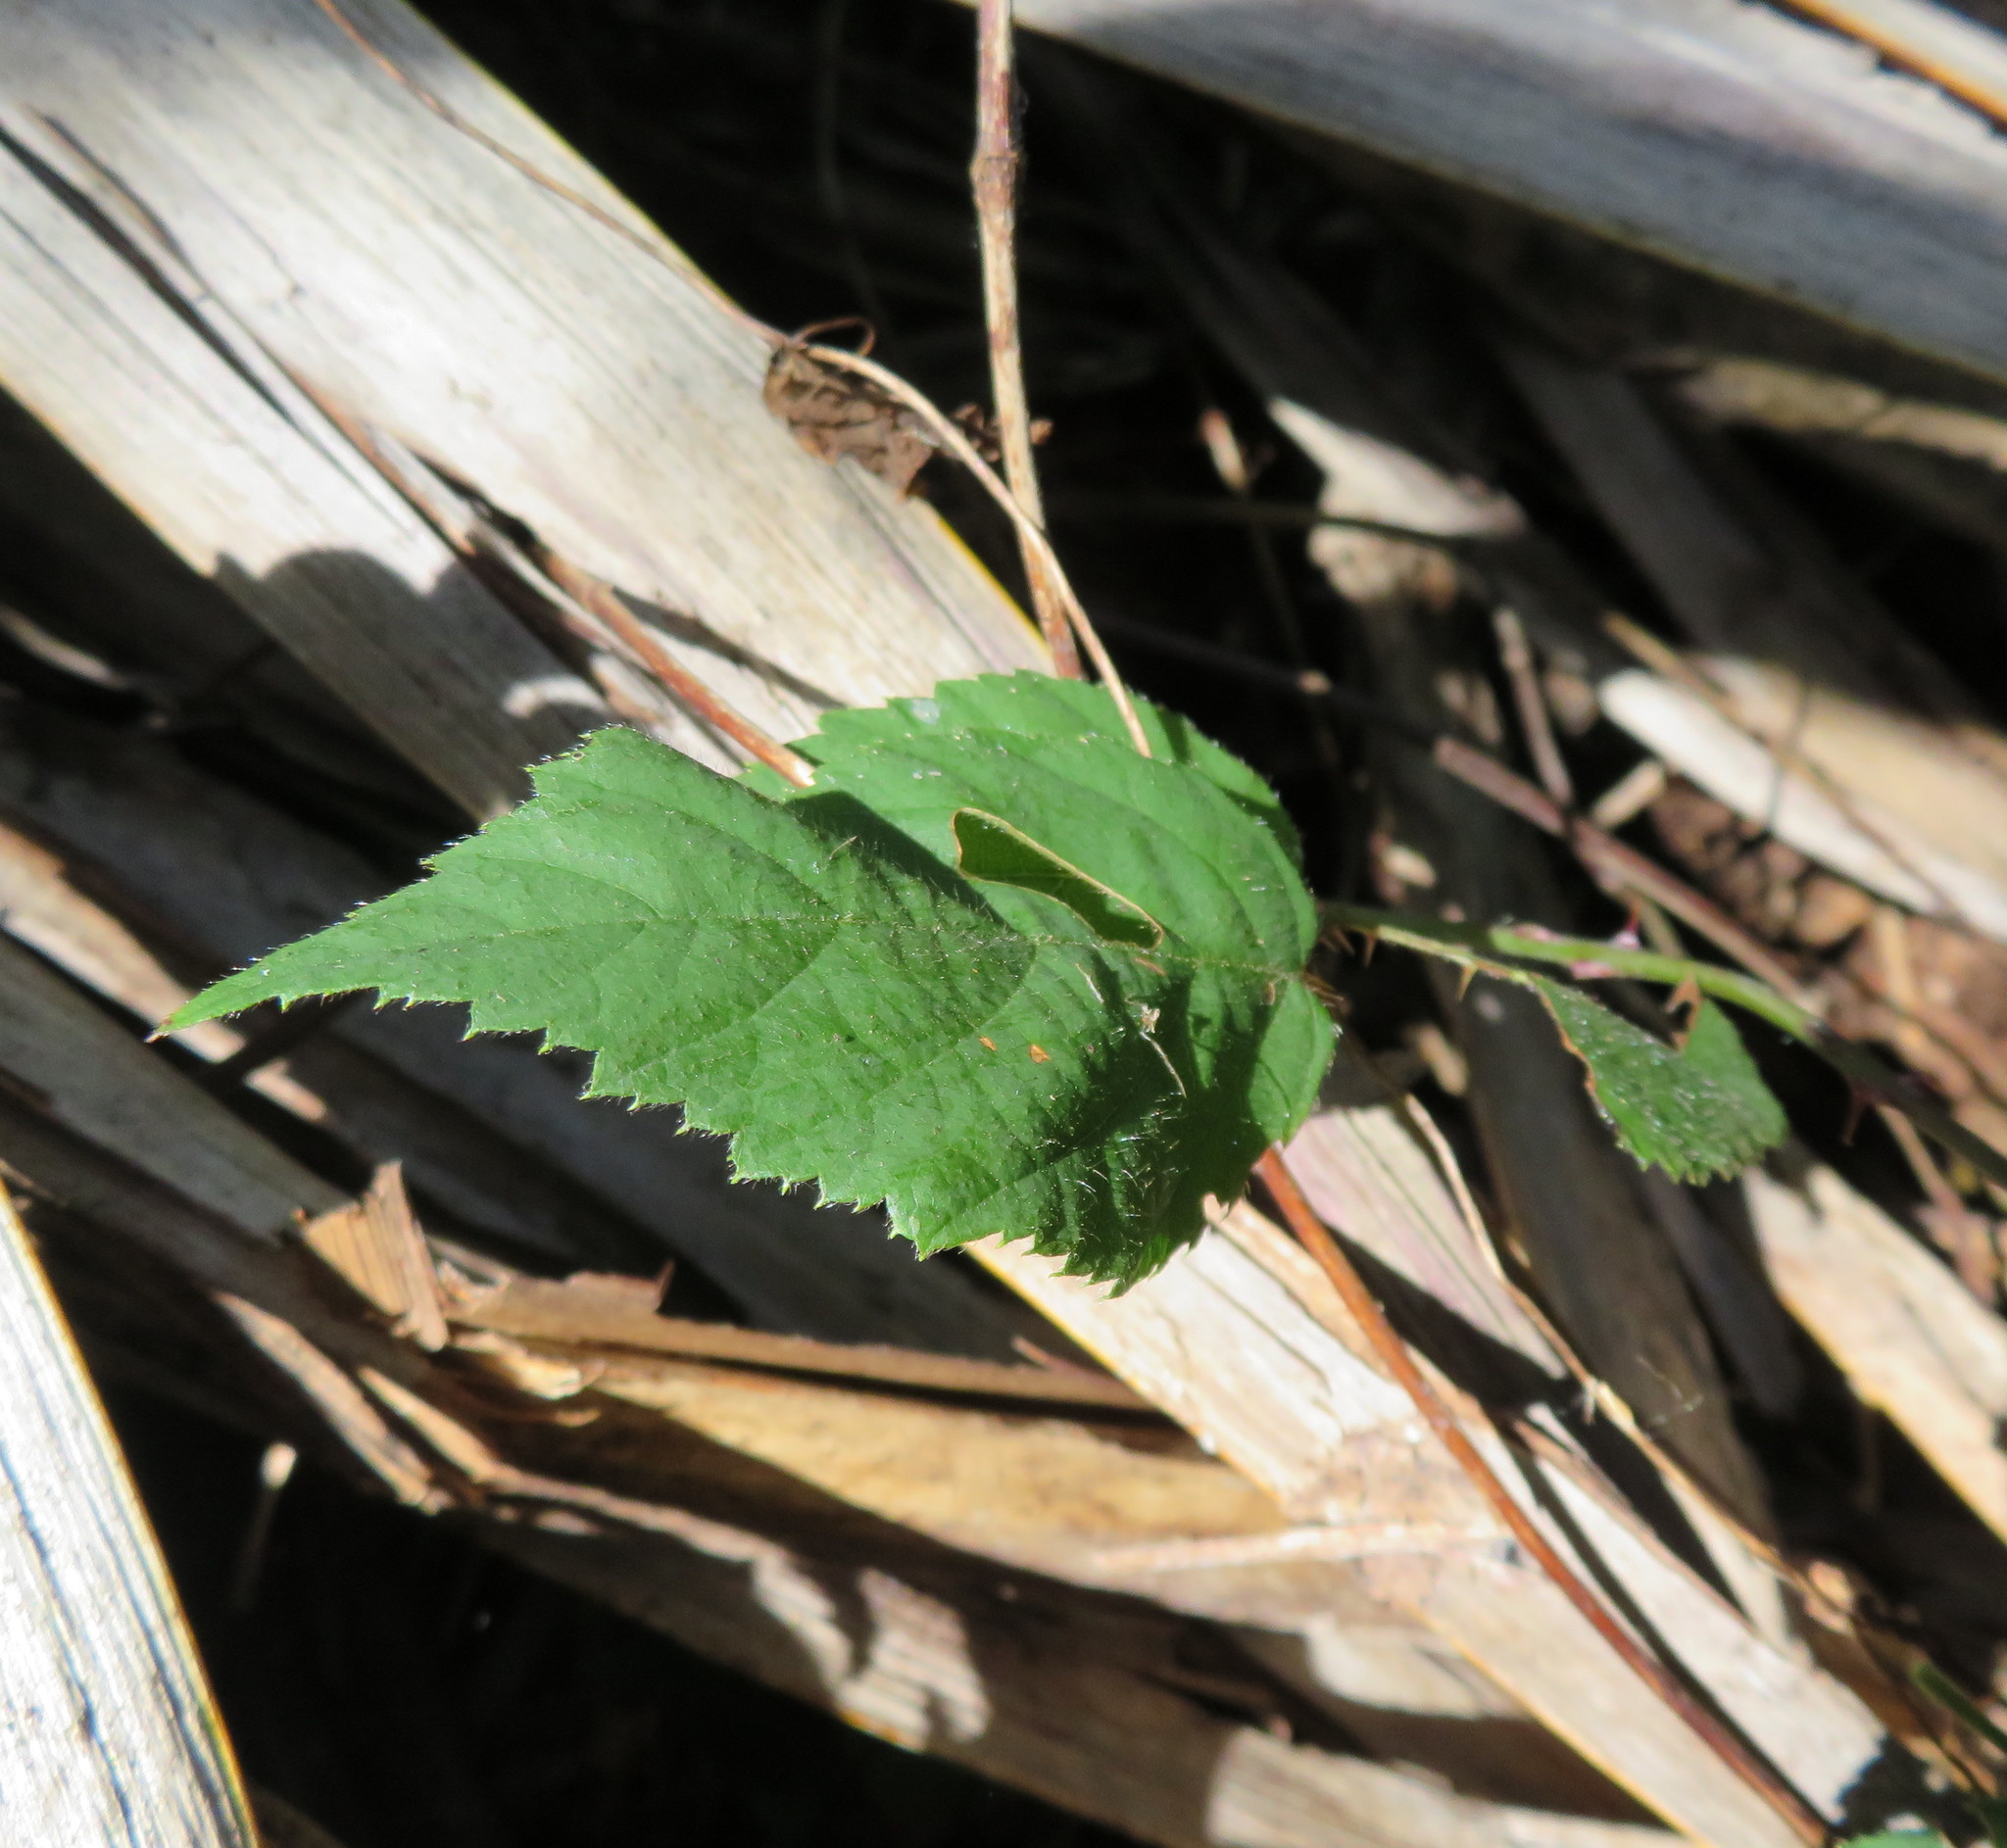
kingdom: Plantae
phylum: Tracheophyta
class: Magnoliopsida
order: Rosales
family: Rosaceae
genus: Rubus
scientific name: Rubus
